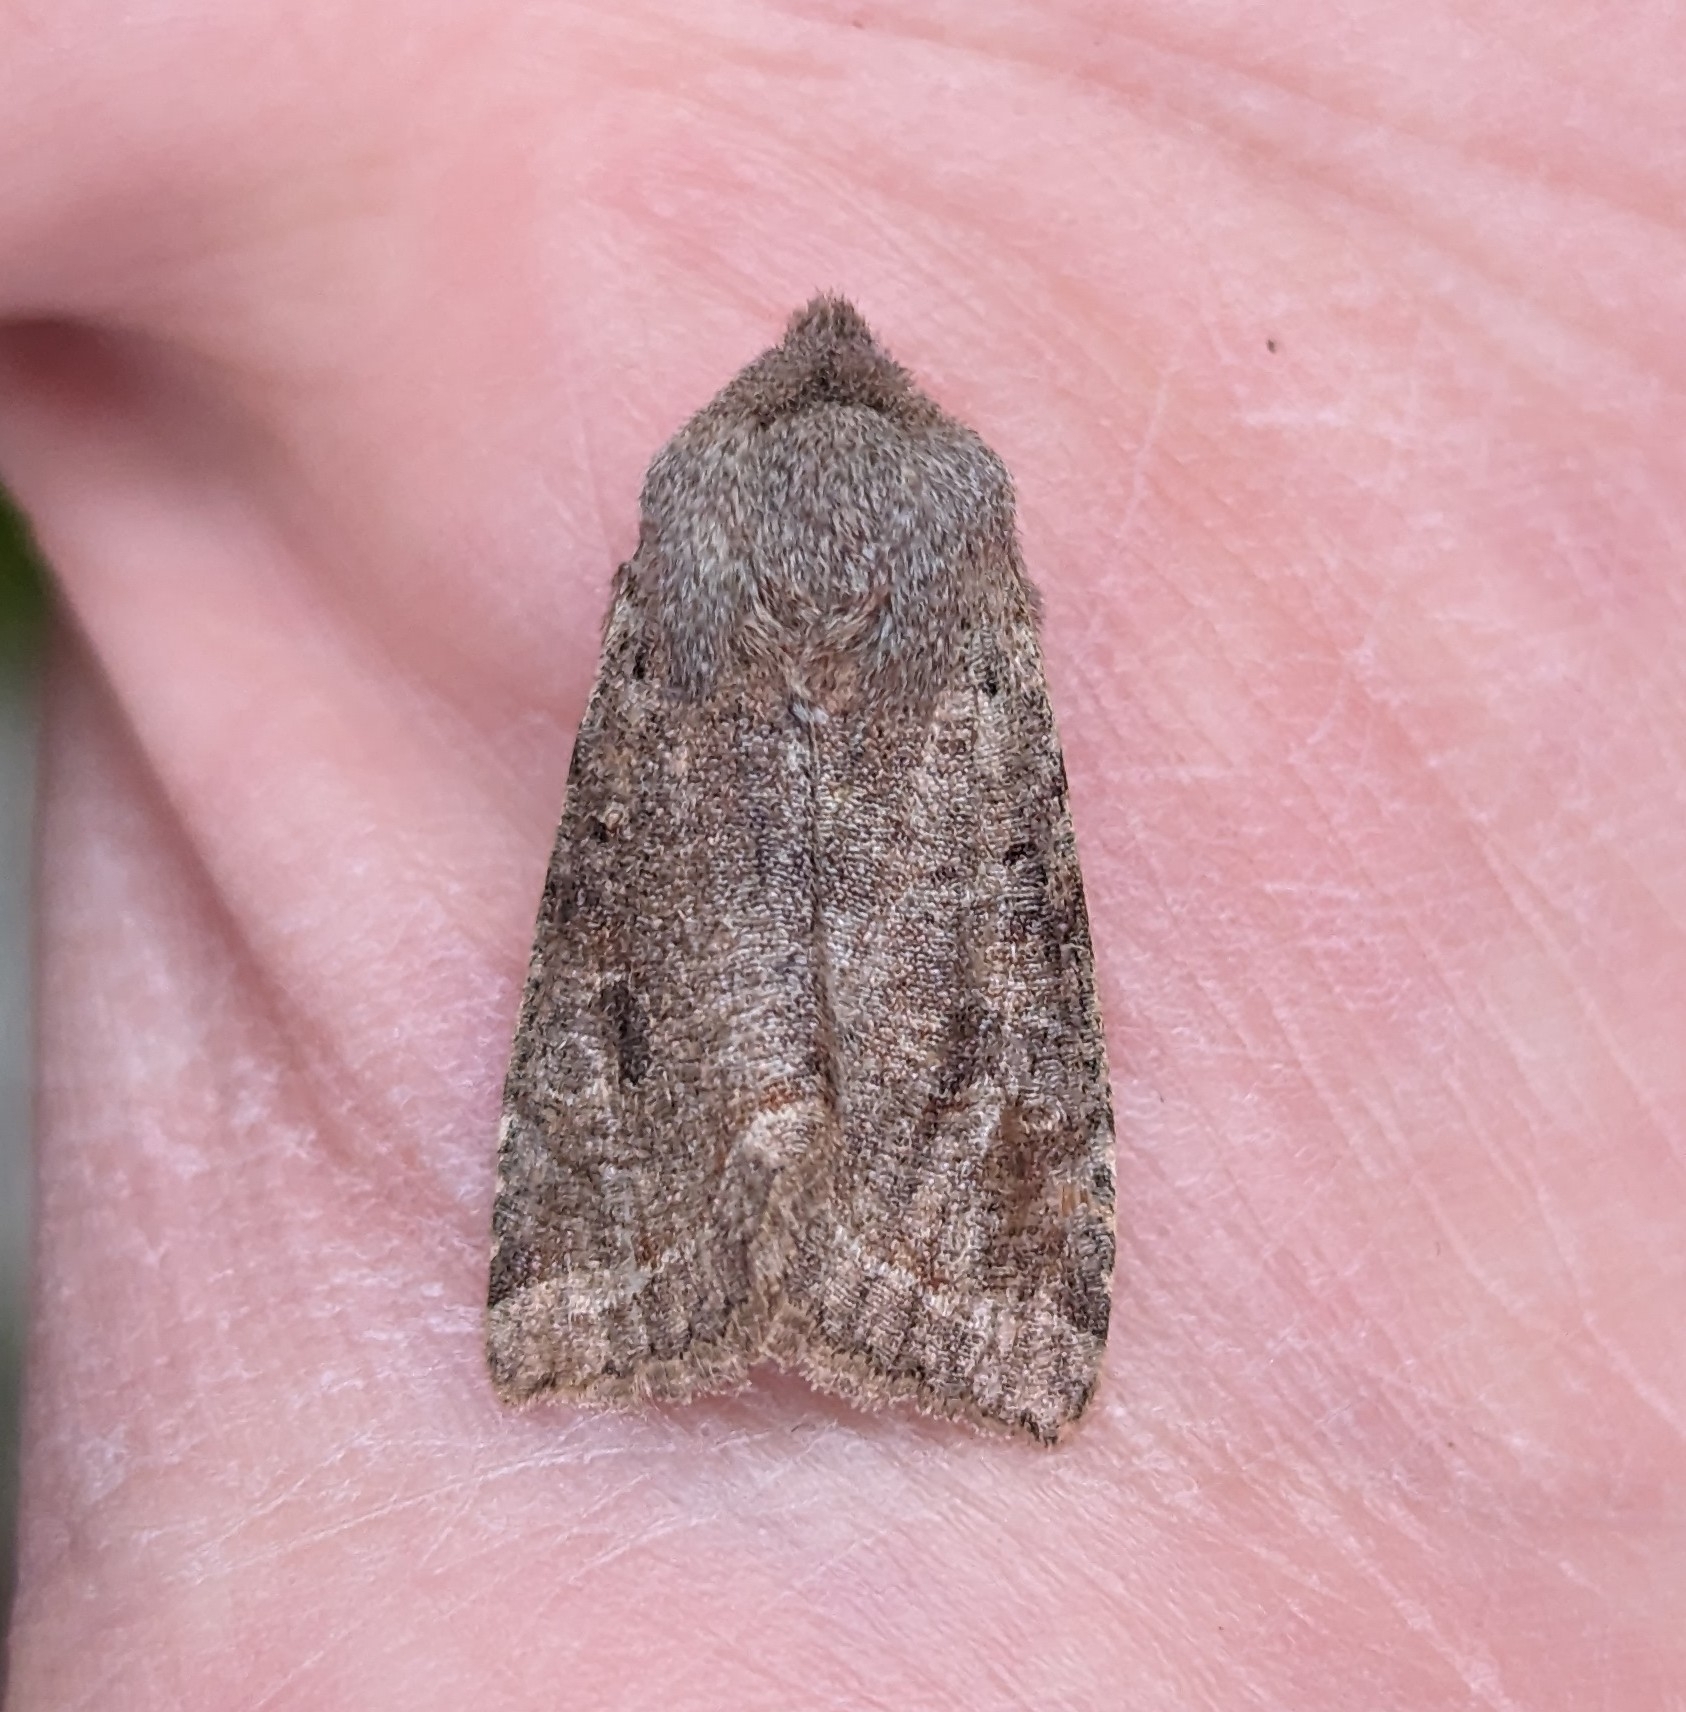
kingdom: Animalia
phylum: Arthropoda
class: Insecta
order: Lepidoptera
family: Noctuidae
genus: Orthosia
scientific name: Orthosia hibisci
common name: Green fruitworm
